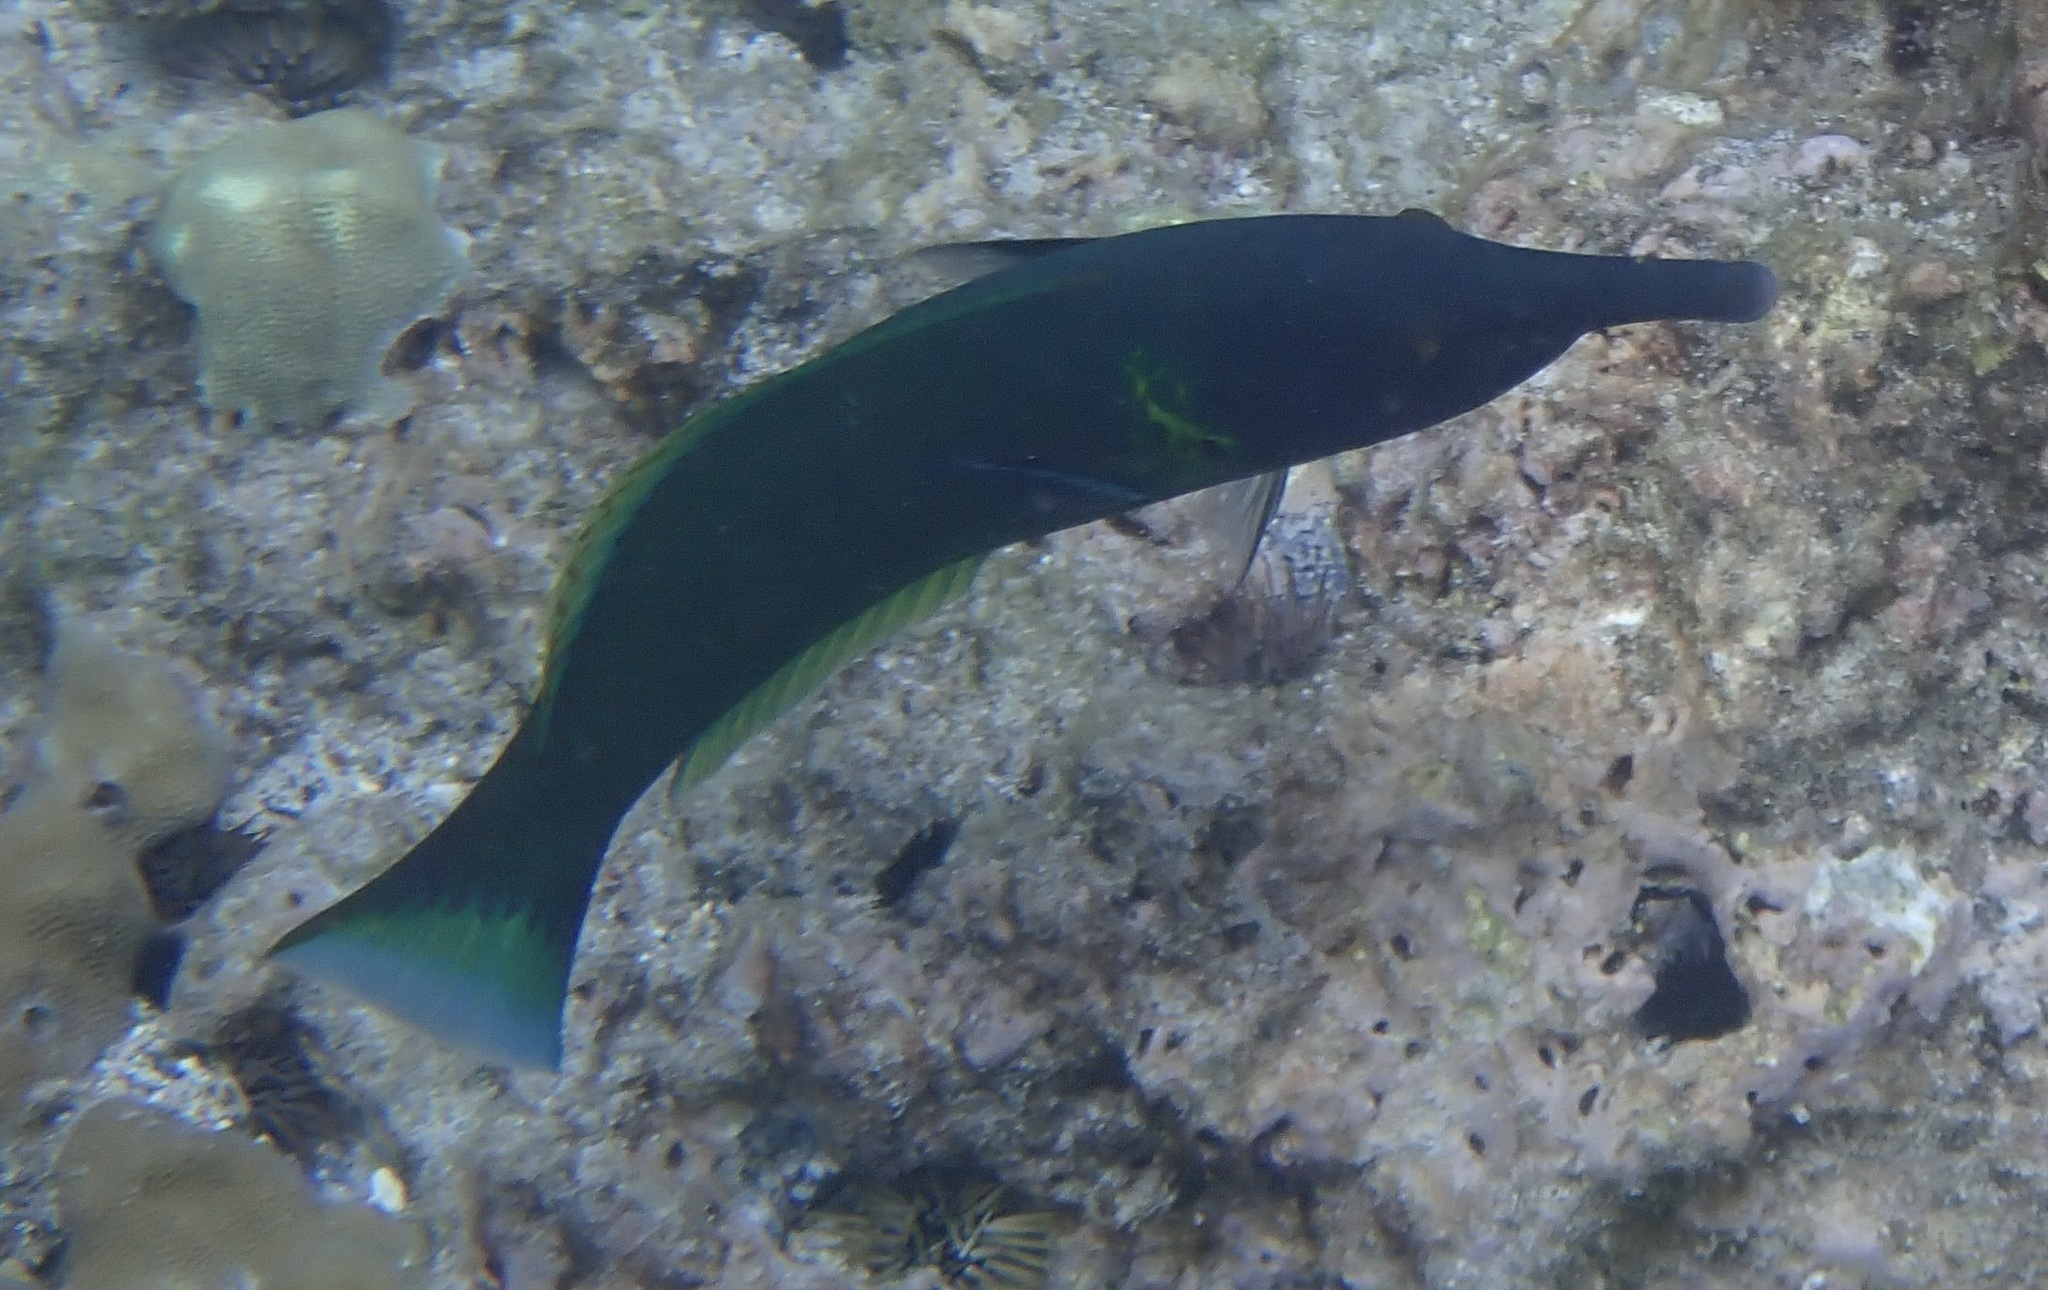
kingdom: Animalia
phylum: Chordata
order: Perciformes
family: Labridae
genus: Gomphosus
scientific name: Gomphosus varius
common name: Bird wrasse
